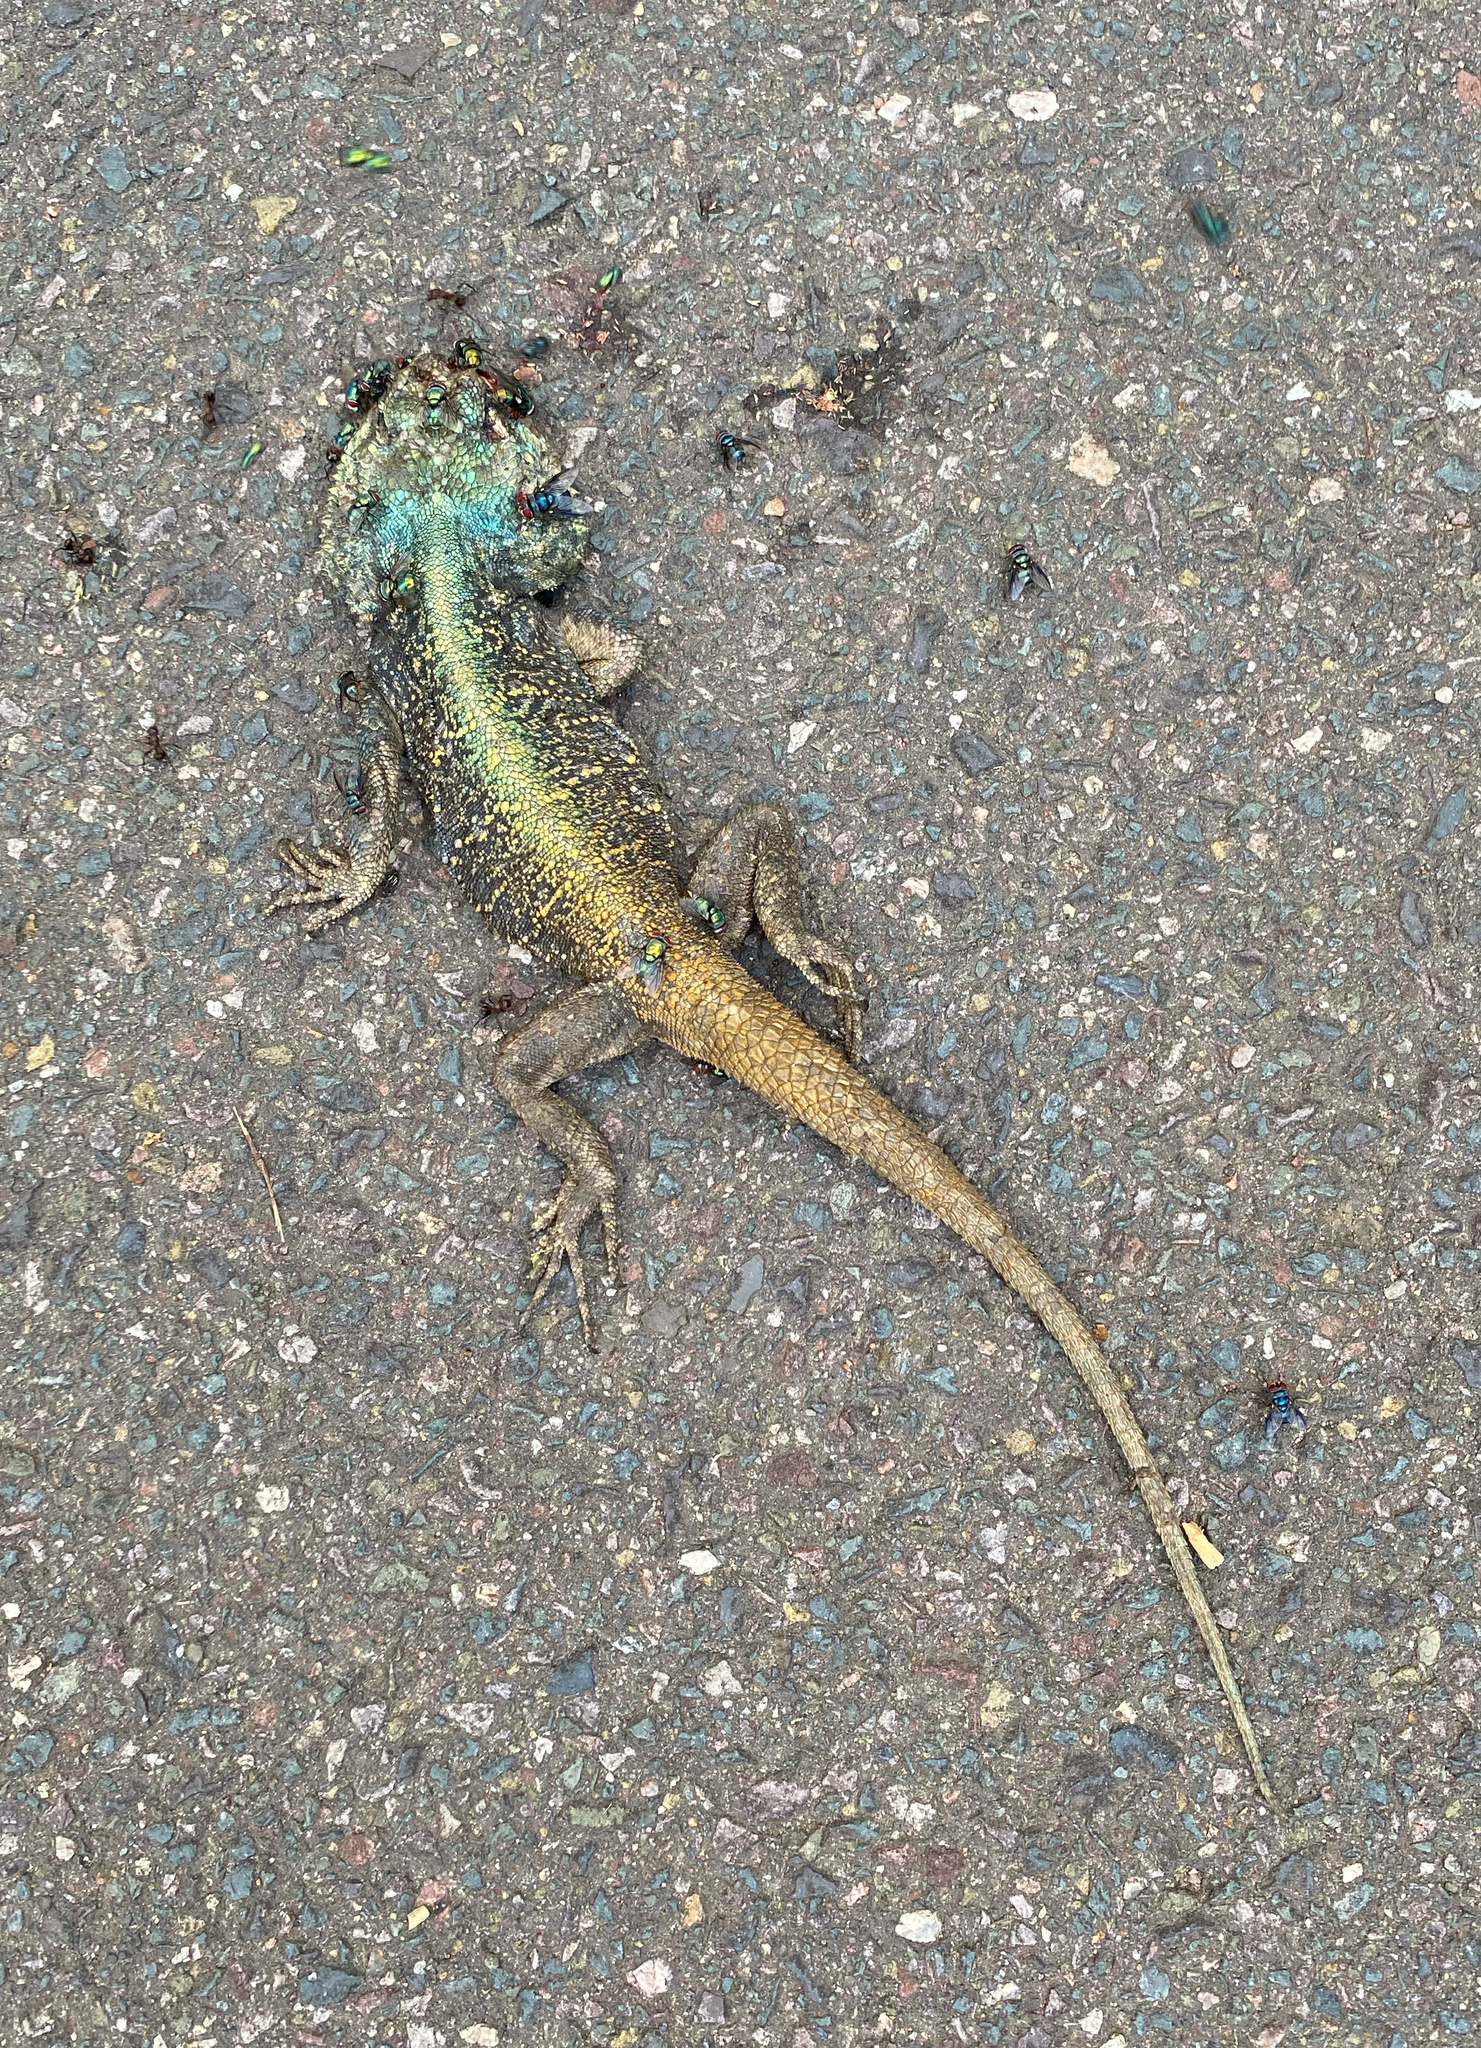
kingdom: Animalia
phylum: Chordata
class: Squamata
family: Agamidae
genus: Acanthocercus
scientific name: Acanthocercus atricollis
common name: Southern tree agama
